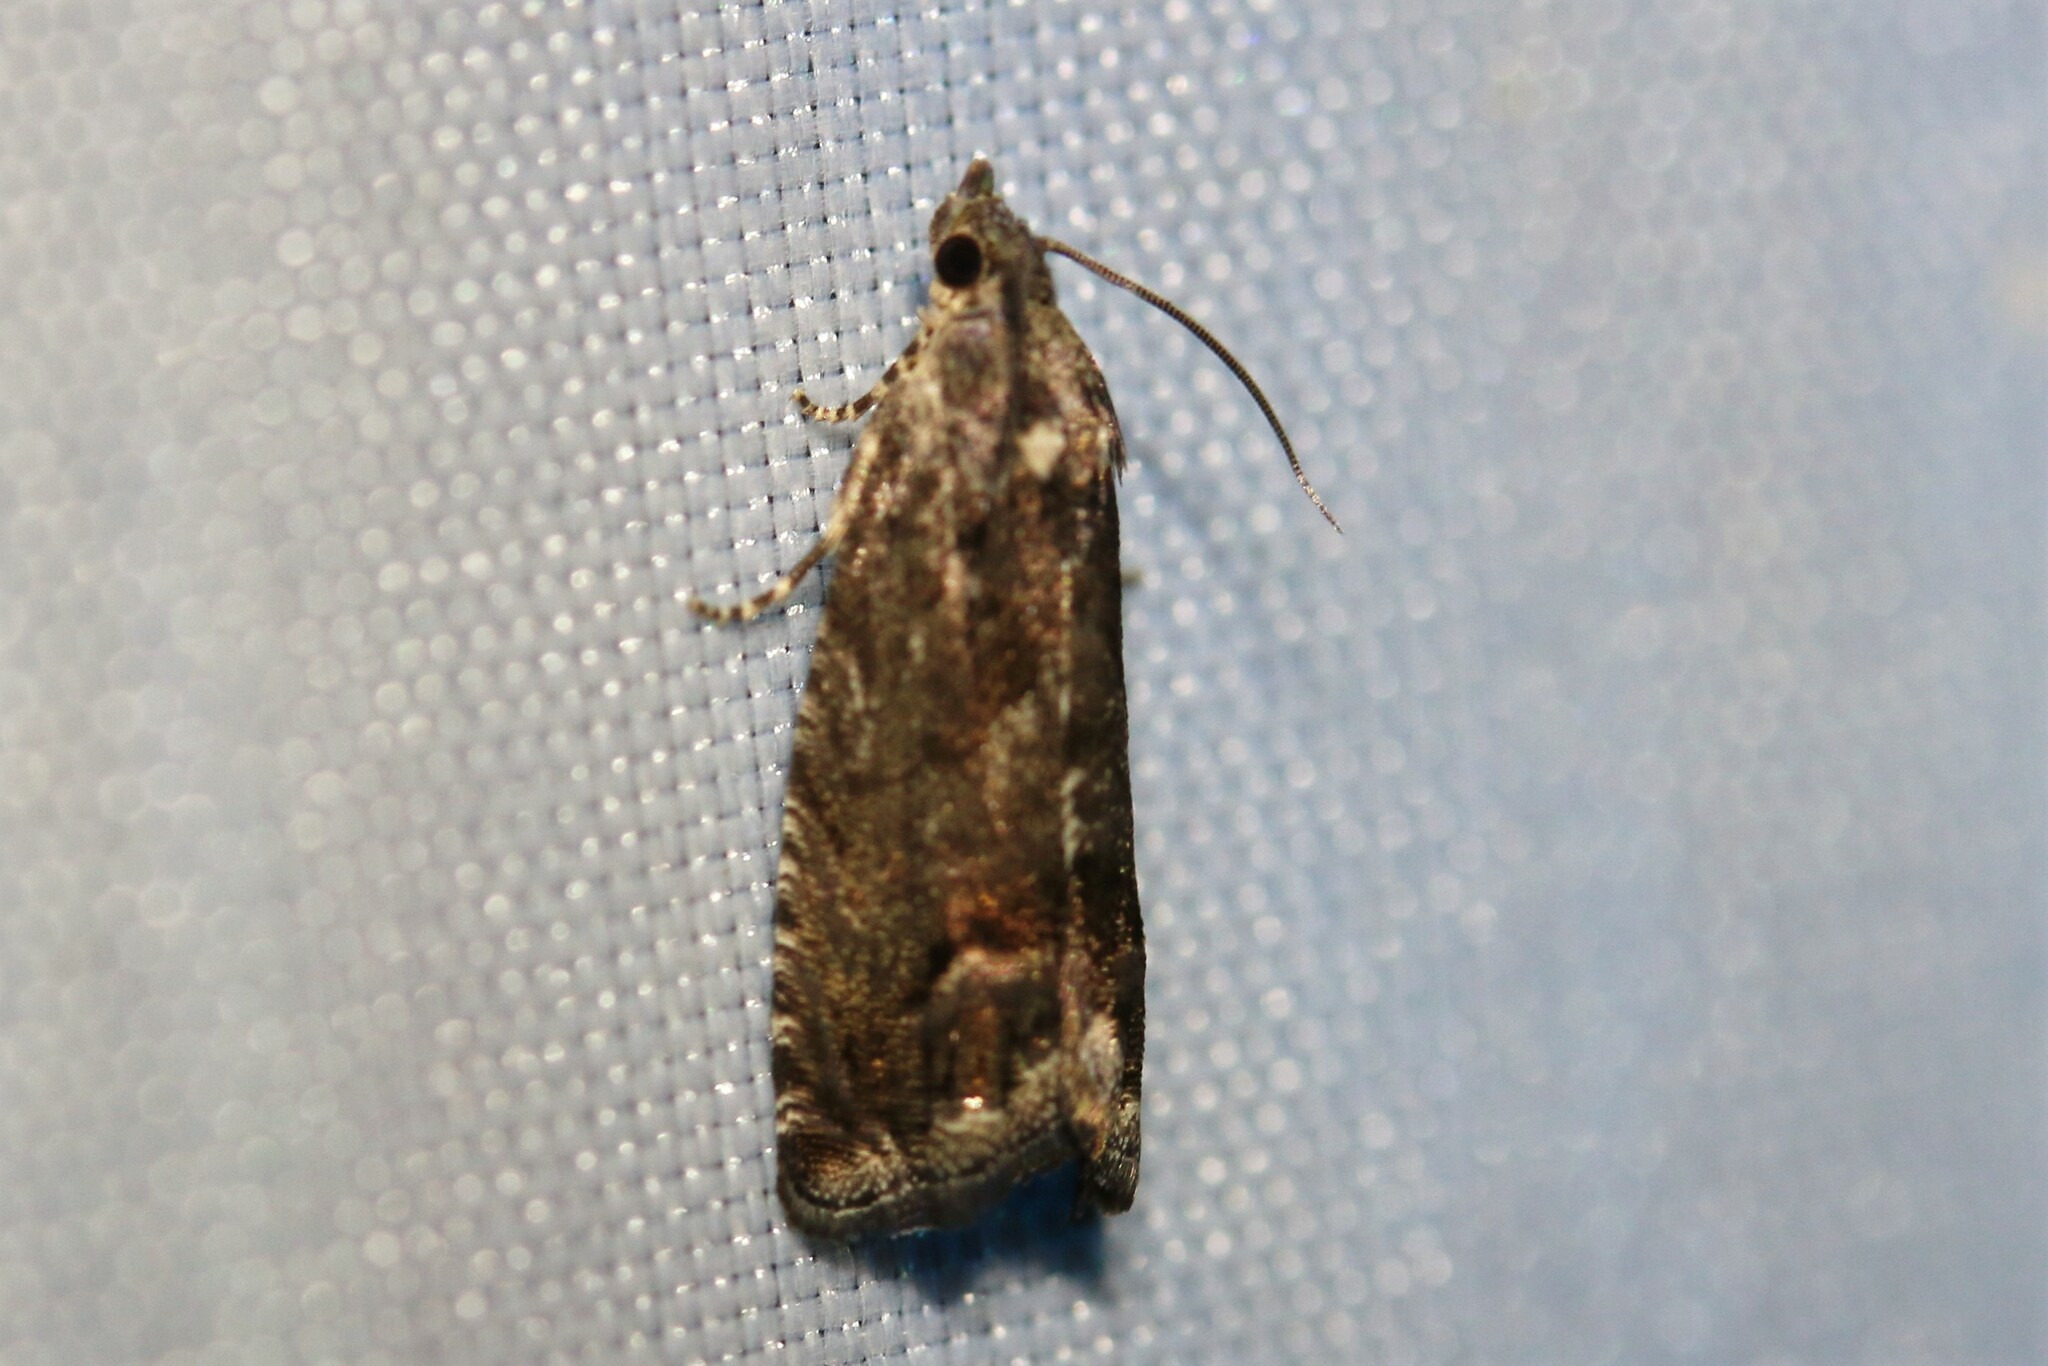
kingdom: Animalia
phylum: Arthropoda
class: Insecta
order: Lepidoptera
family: Tortricidae
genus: Cydia
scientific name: Cydia splendana
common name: De: kastanienwickler, eichenwickler es: oruga de la castaña fr: carpocapse des châtaignes it: cidia o tortrice tardiva delle castagne pt: bichado das castanhas gb: acorn moth, chestnut fruit tortrix
